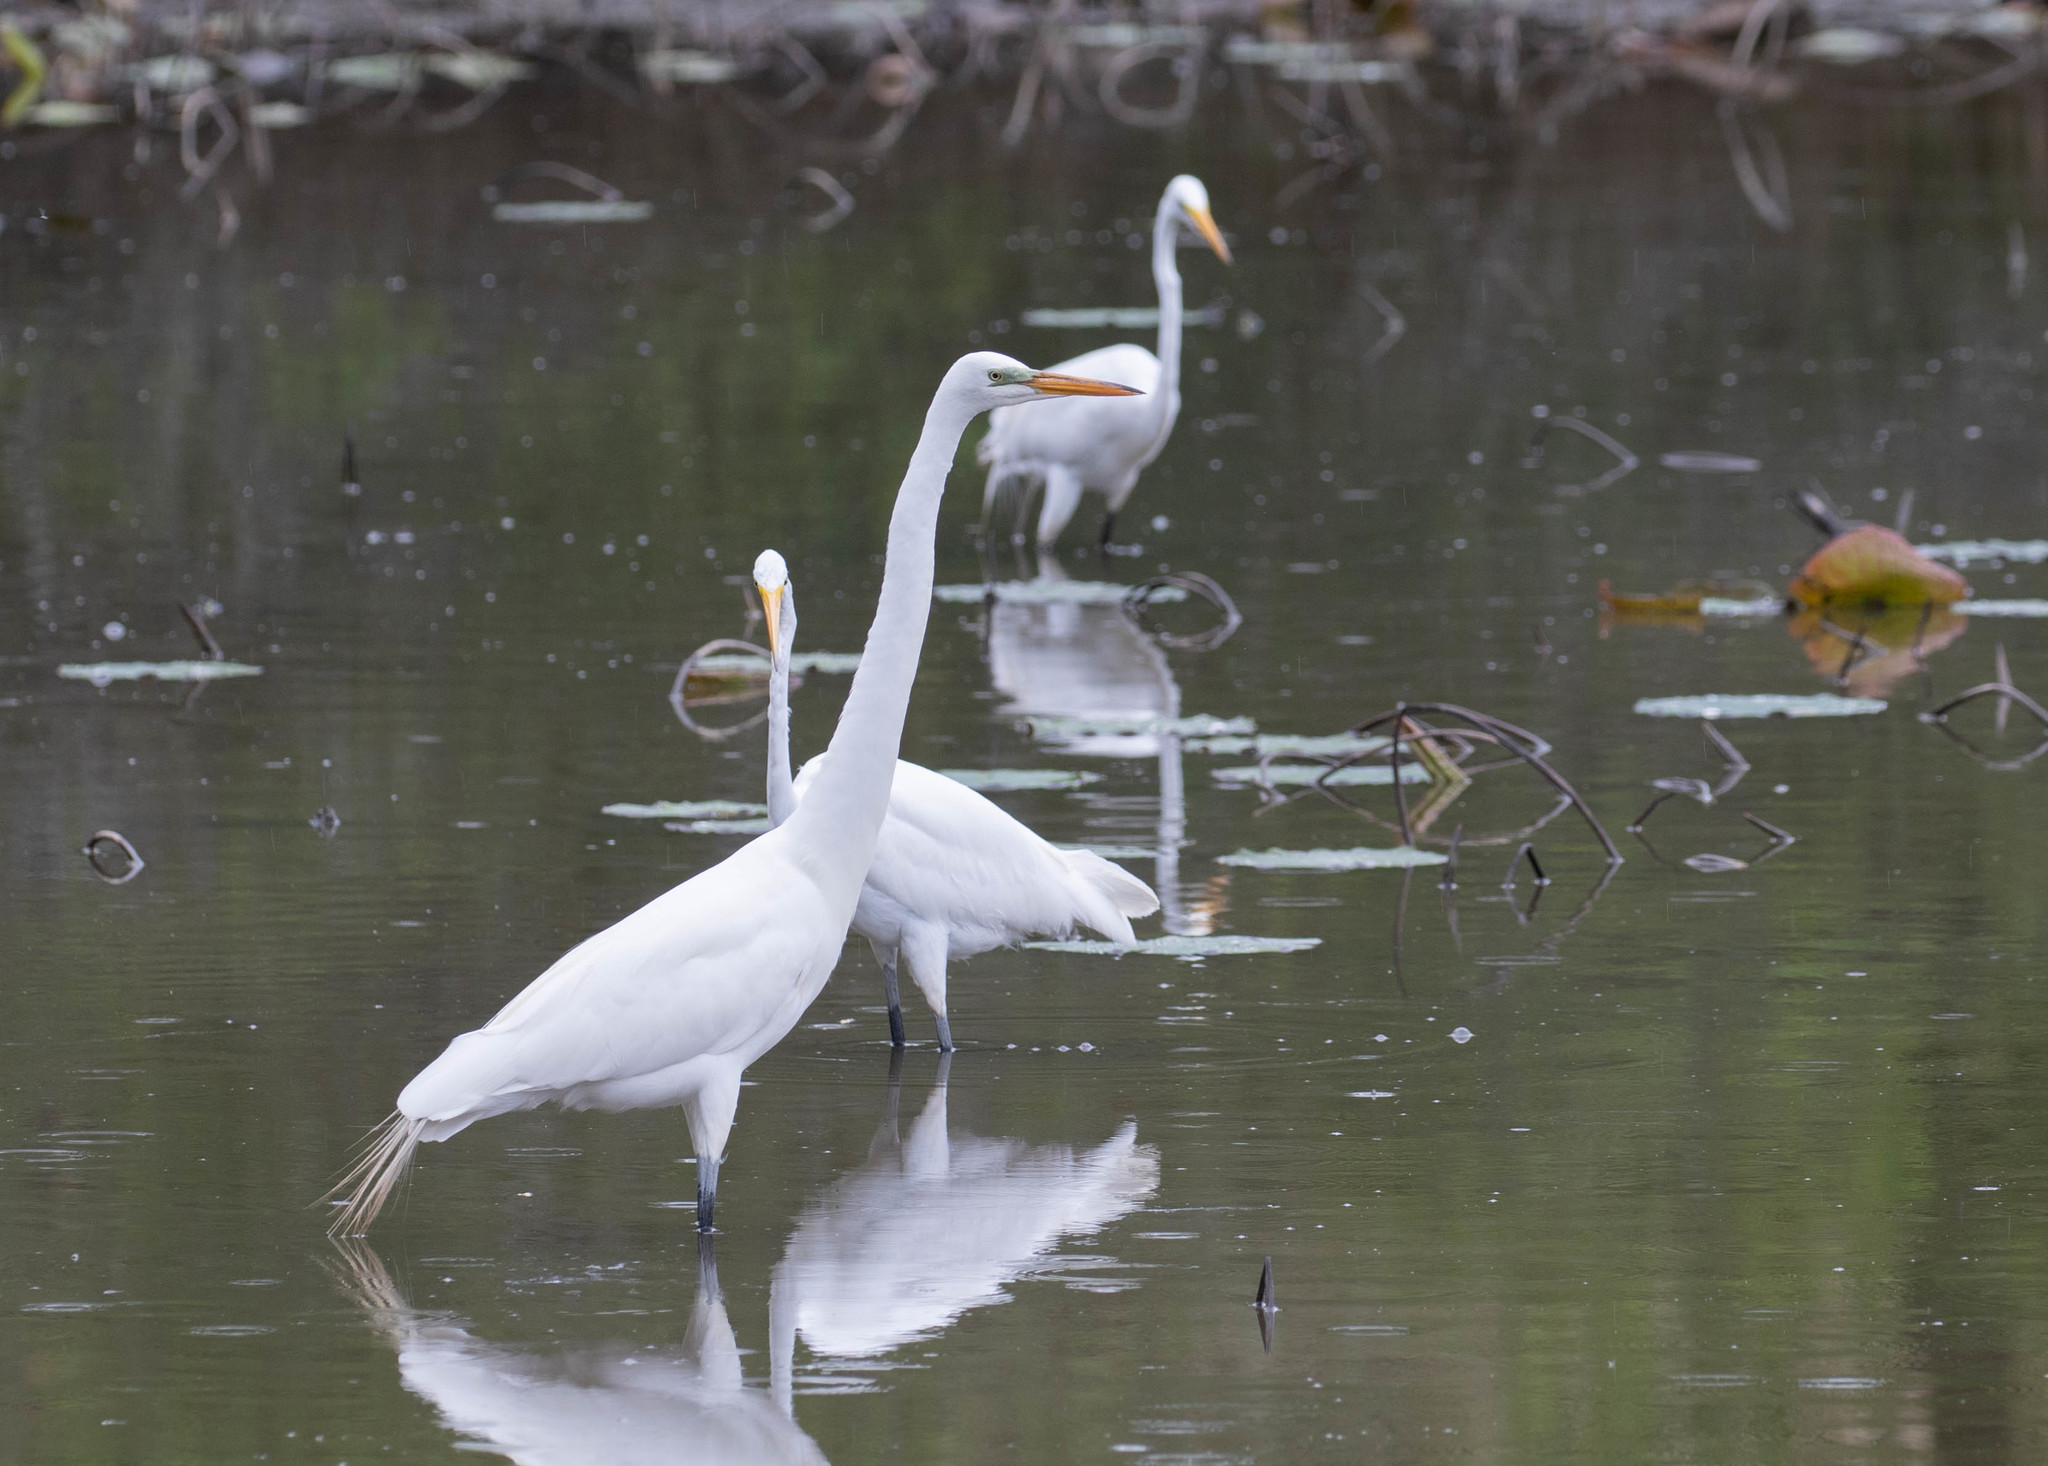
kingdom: Animalia
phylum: Chordata
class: Aves
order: Pelecaniformes
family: Ardeidae
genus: Ardea
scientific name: Ardea alba
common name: Great egret
